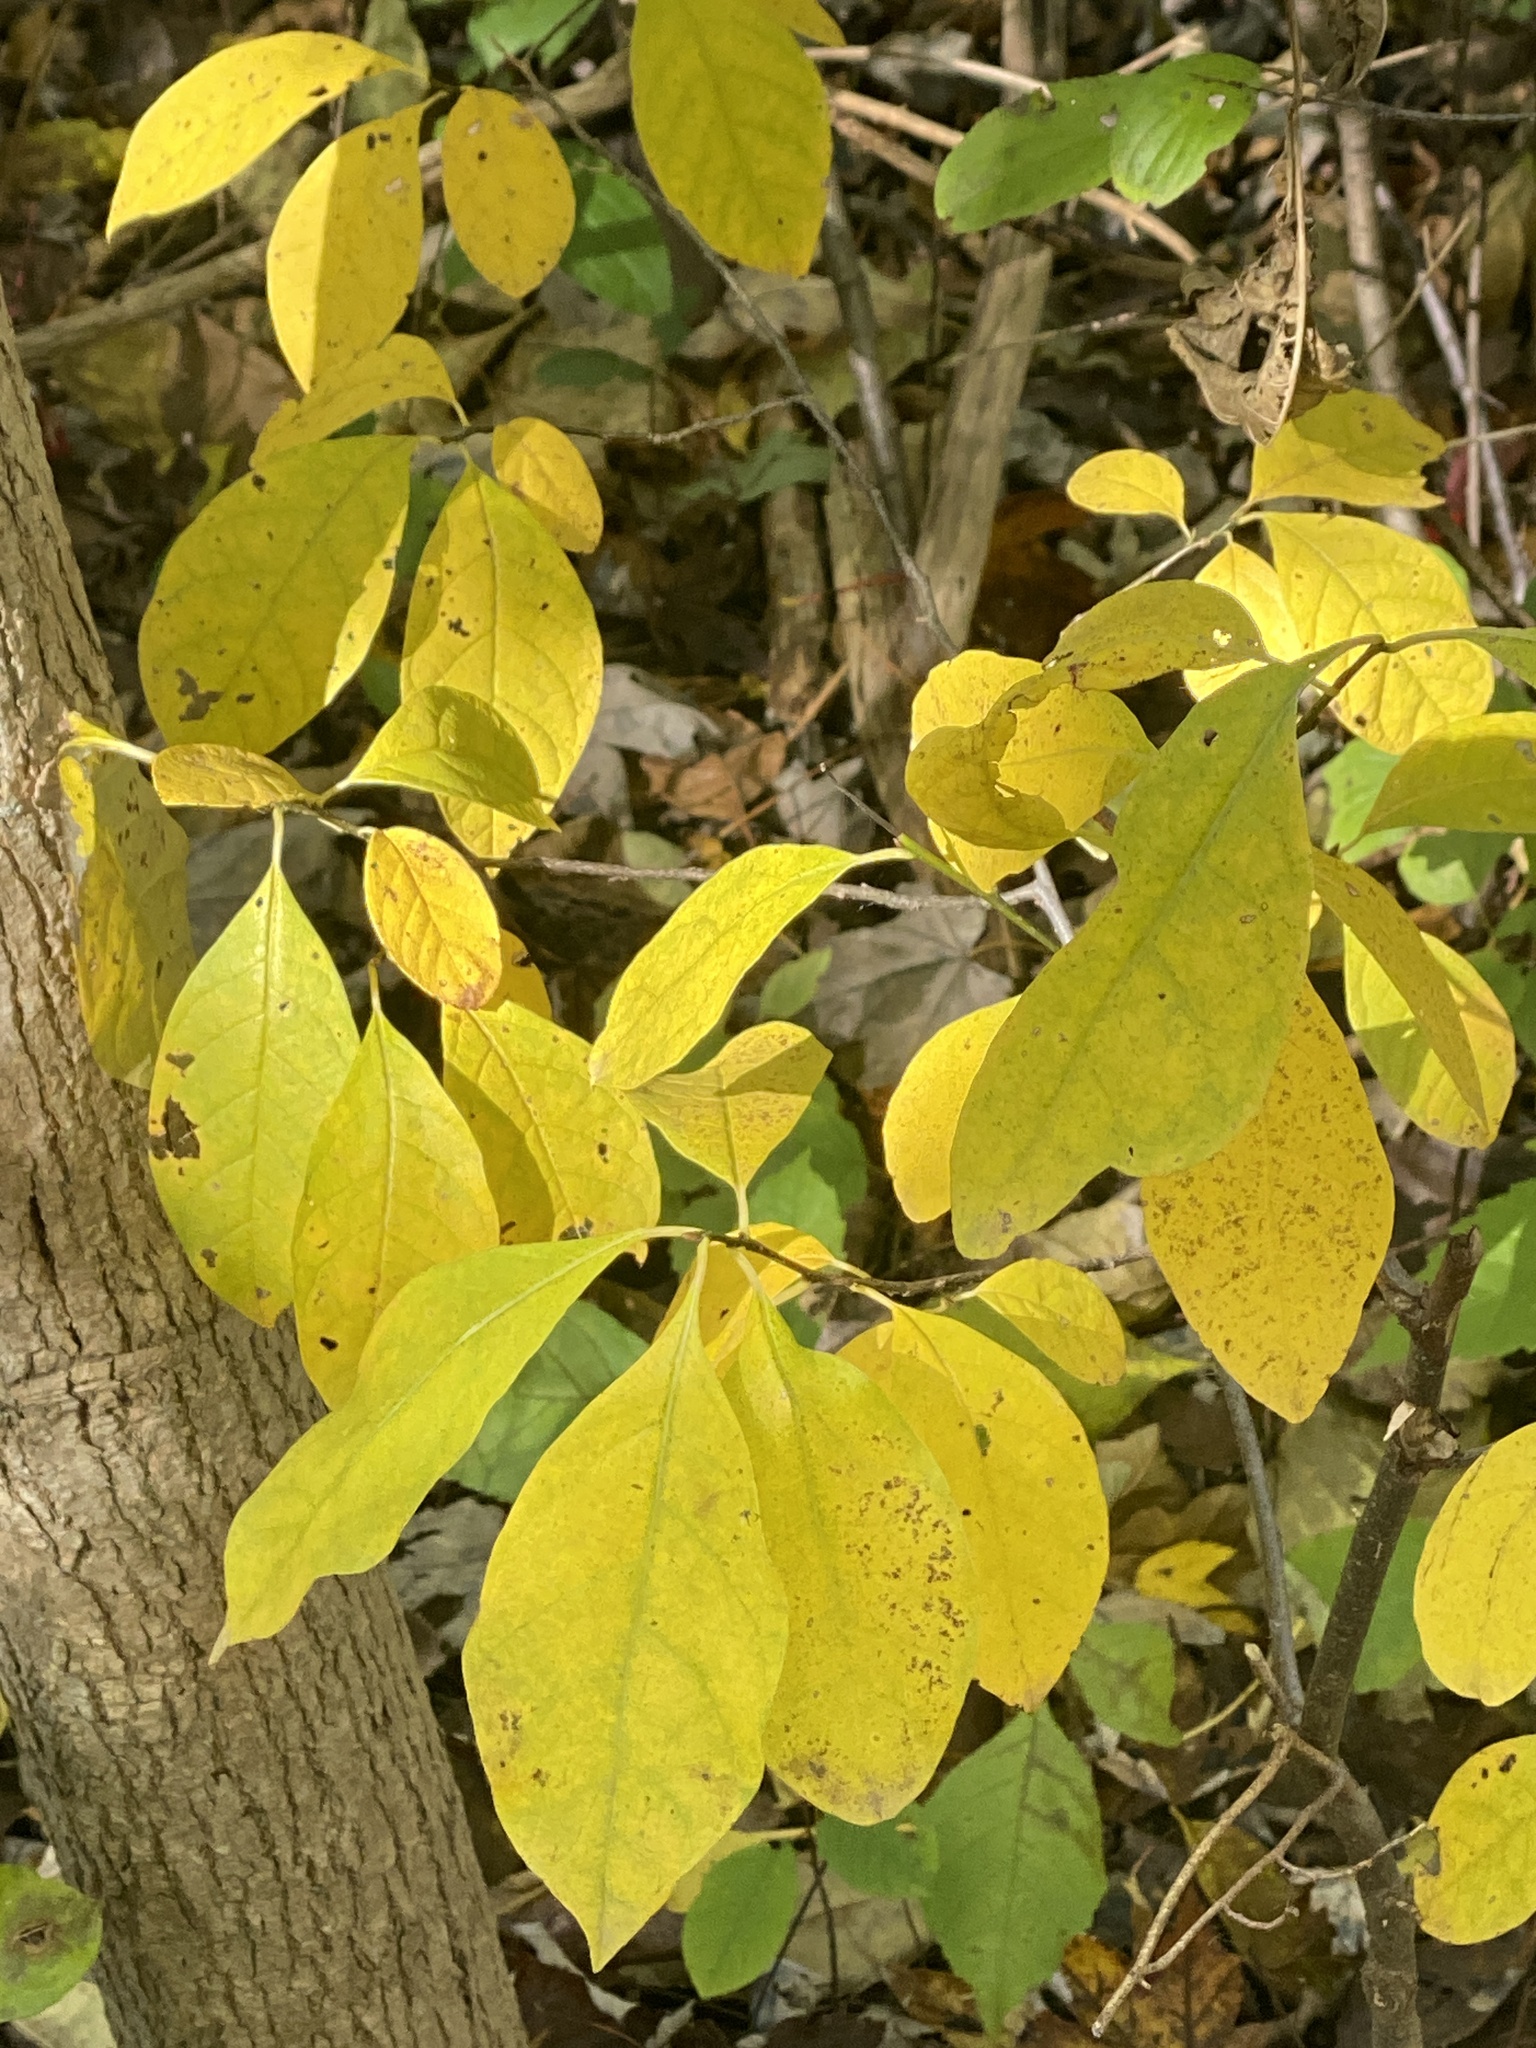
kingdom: Plantae
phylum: Tracheophyta
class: Magnoliopsida
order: Laurales
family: Lauraceae
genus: Lindera
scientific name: Lindera benzoin
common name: Spicebush
